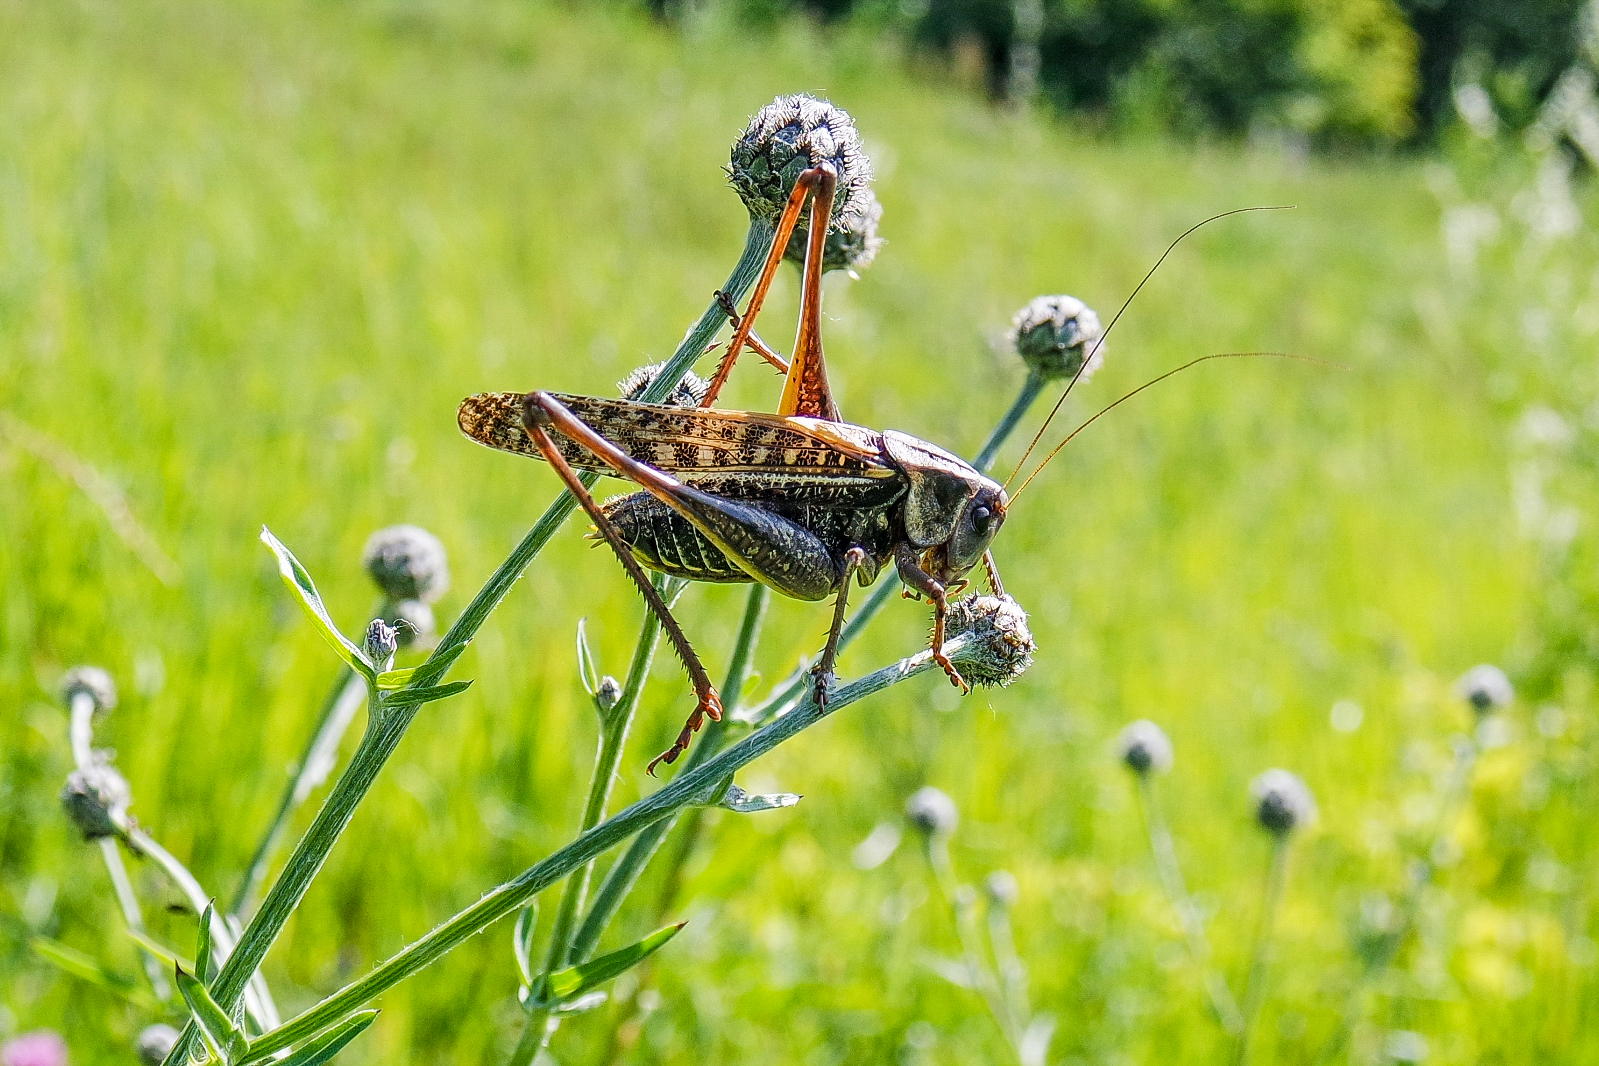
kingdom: Animalia
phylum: Arthropoda
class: Insecta
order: Orthoptera
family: Tettigoniidae
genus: Decticus
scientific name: Decticus verrucivorus
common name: Wart-biter
